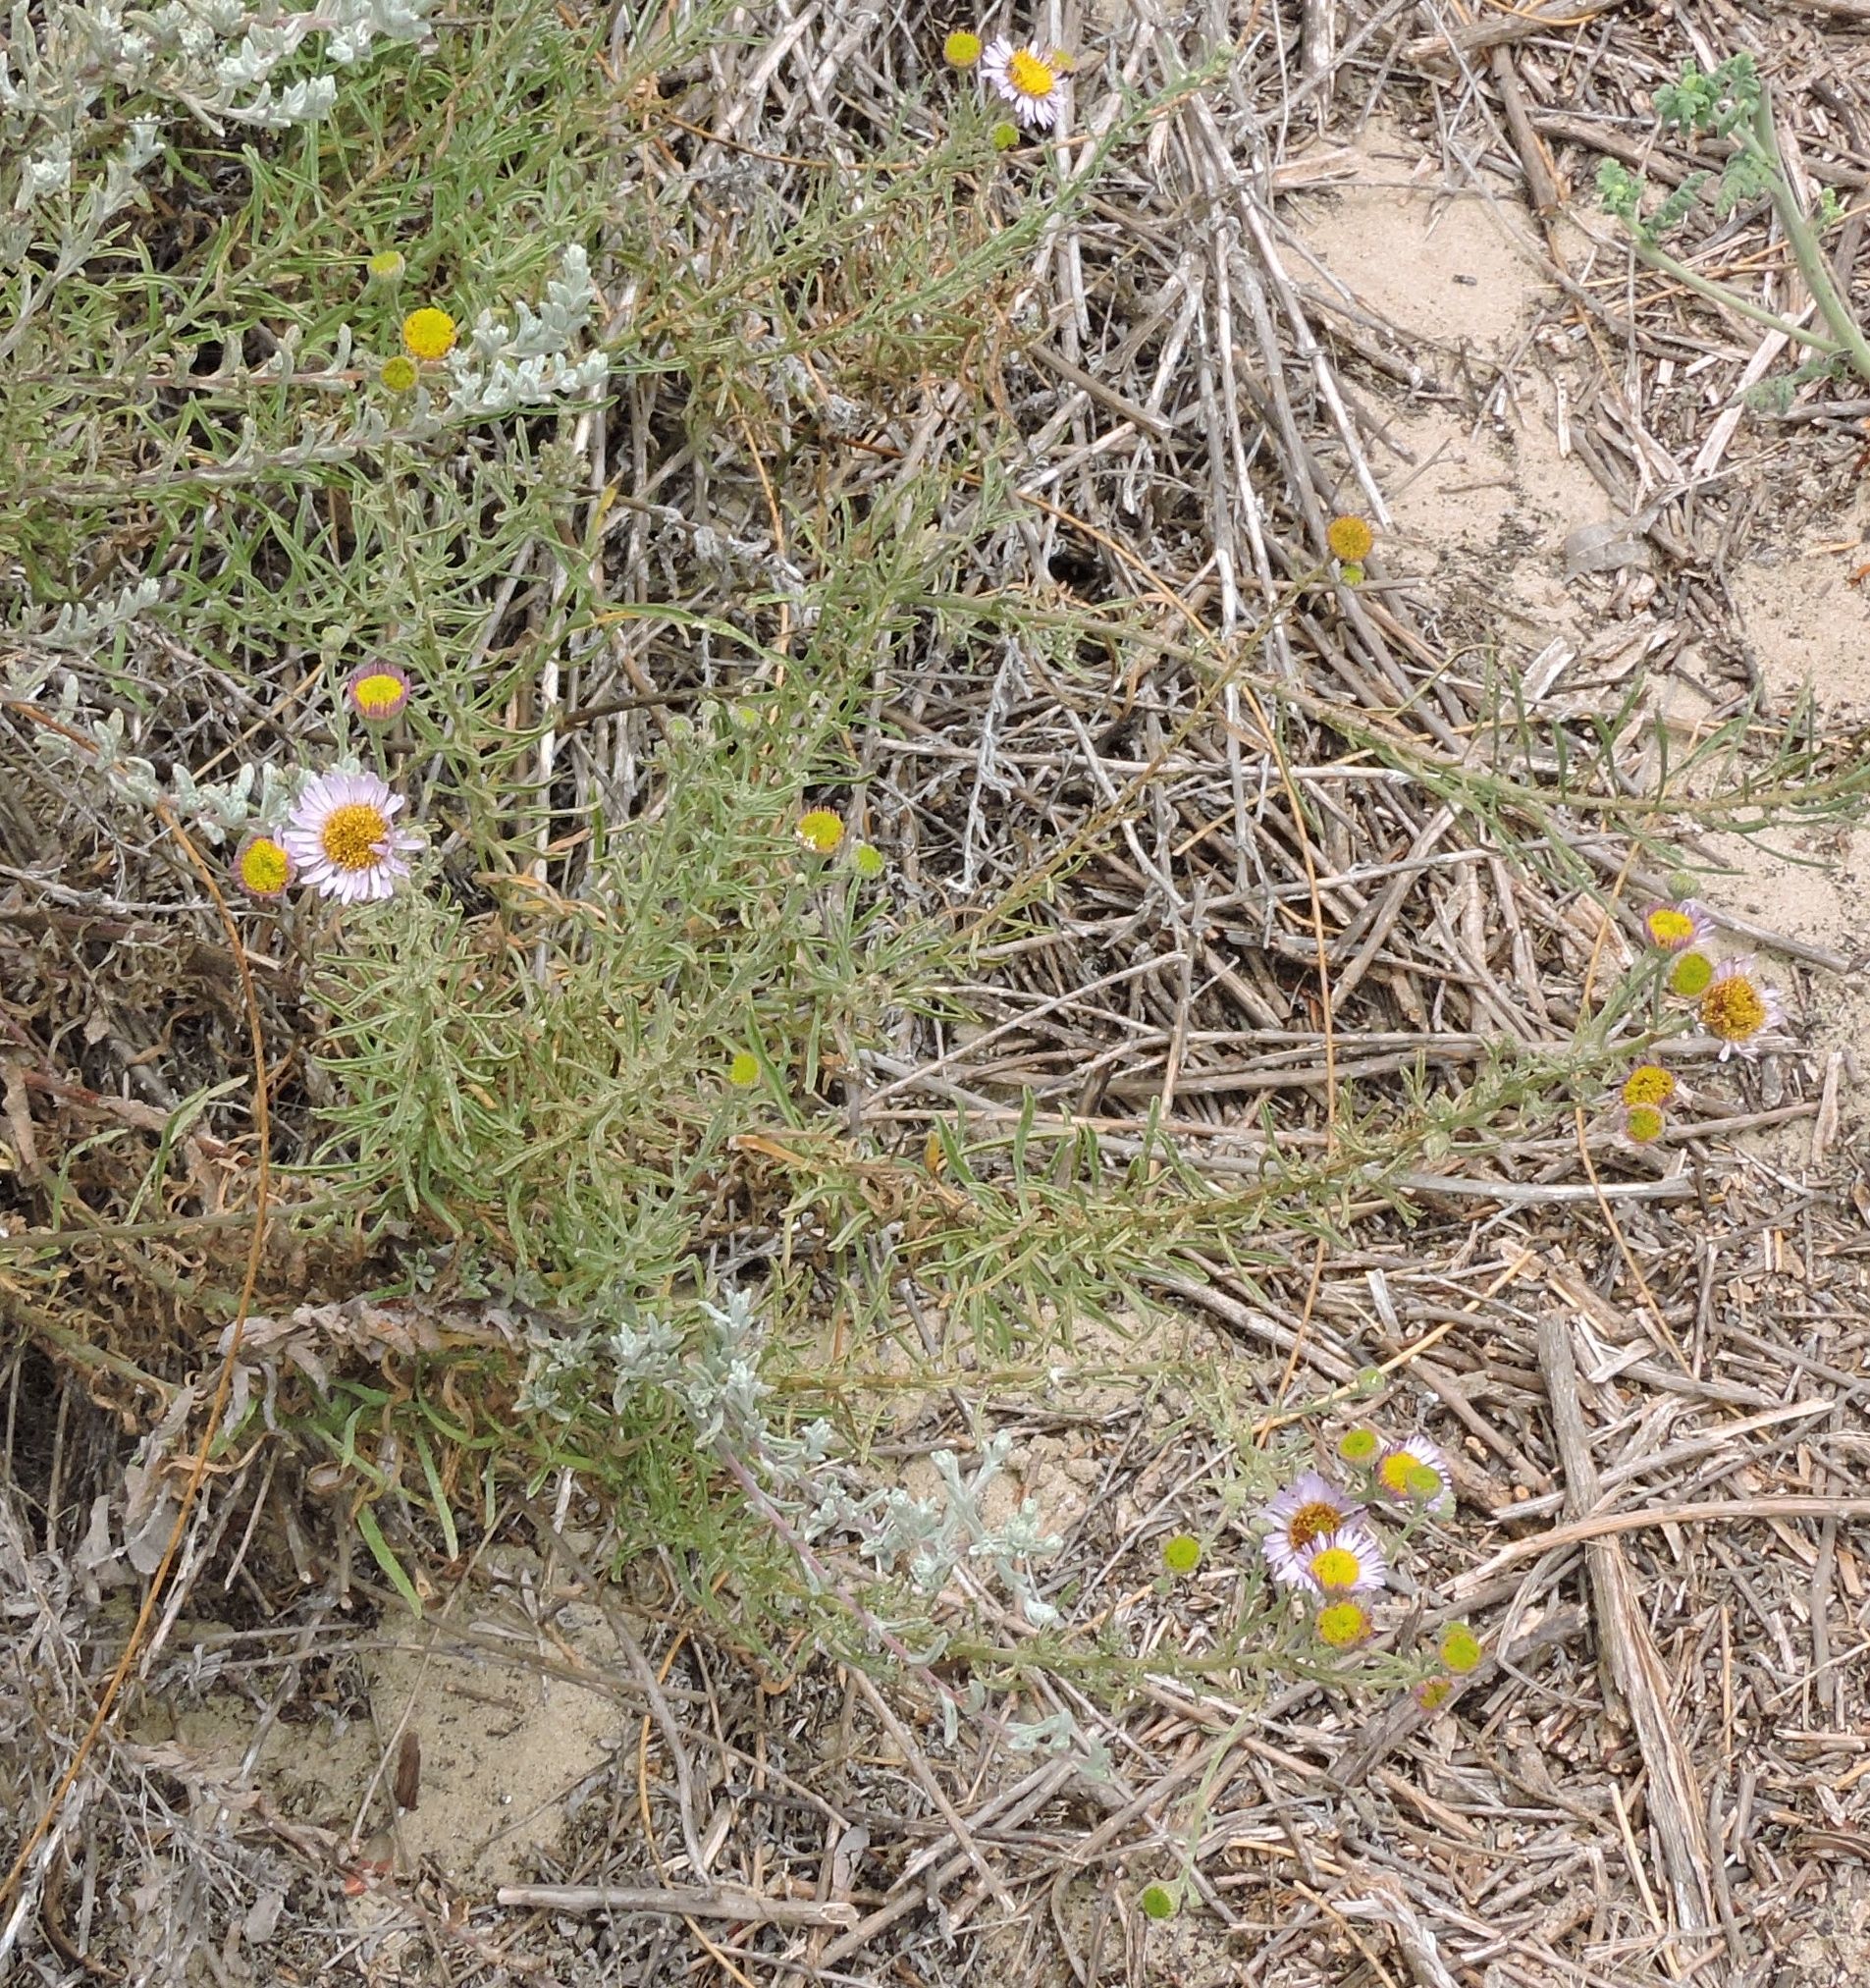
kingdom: Plantae
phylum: Tracheophyta
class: Magnoliopsida
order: Asterales
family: Asteraceae
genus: Erigeron
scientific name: Erigeron blochmaniae
